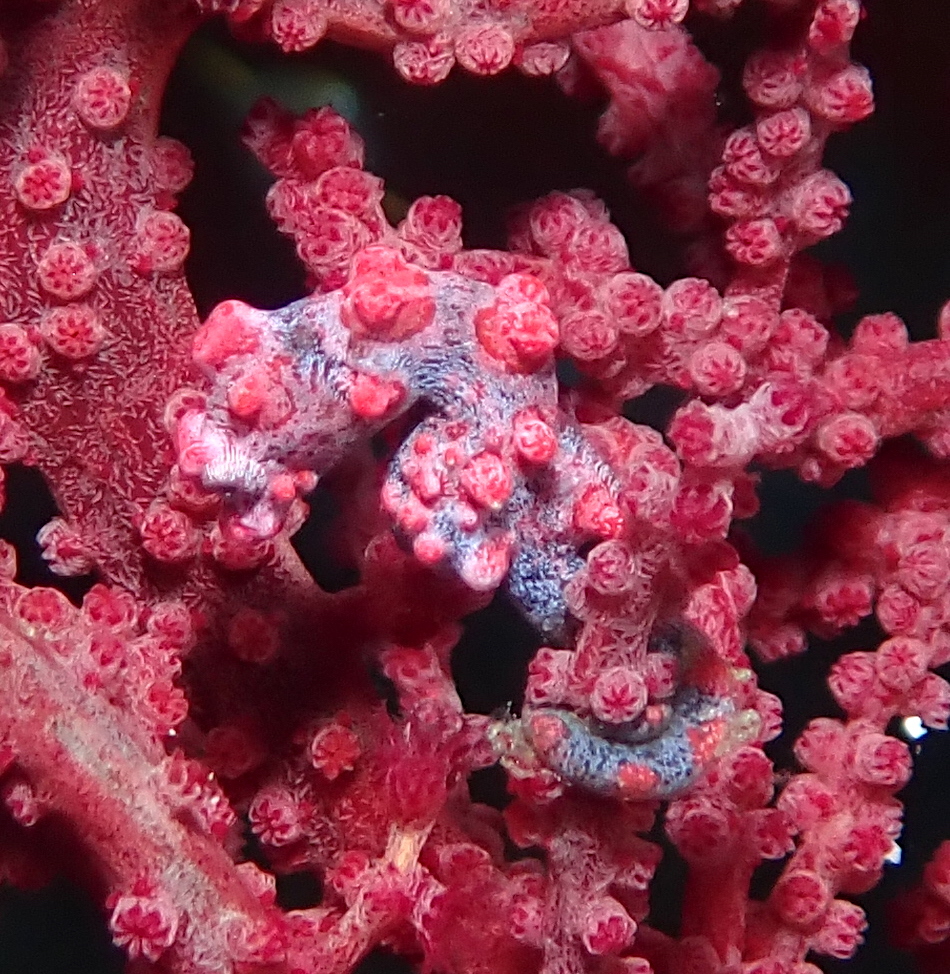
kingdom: Animalia
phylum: Chordata
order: Syngnathiformes
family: Syngnathidae
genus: Hippocampus
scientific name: Hippocampus bargibanti
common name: Bargibant's seahorse
